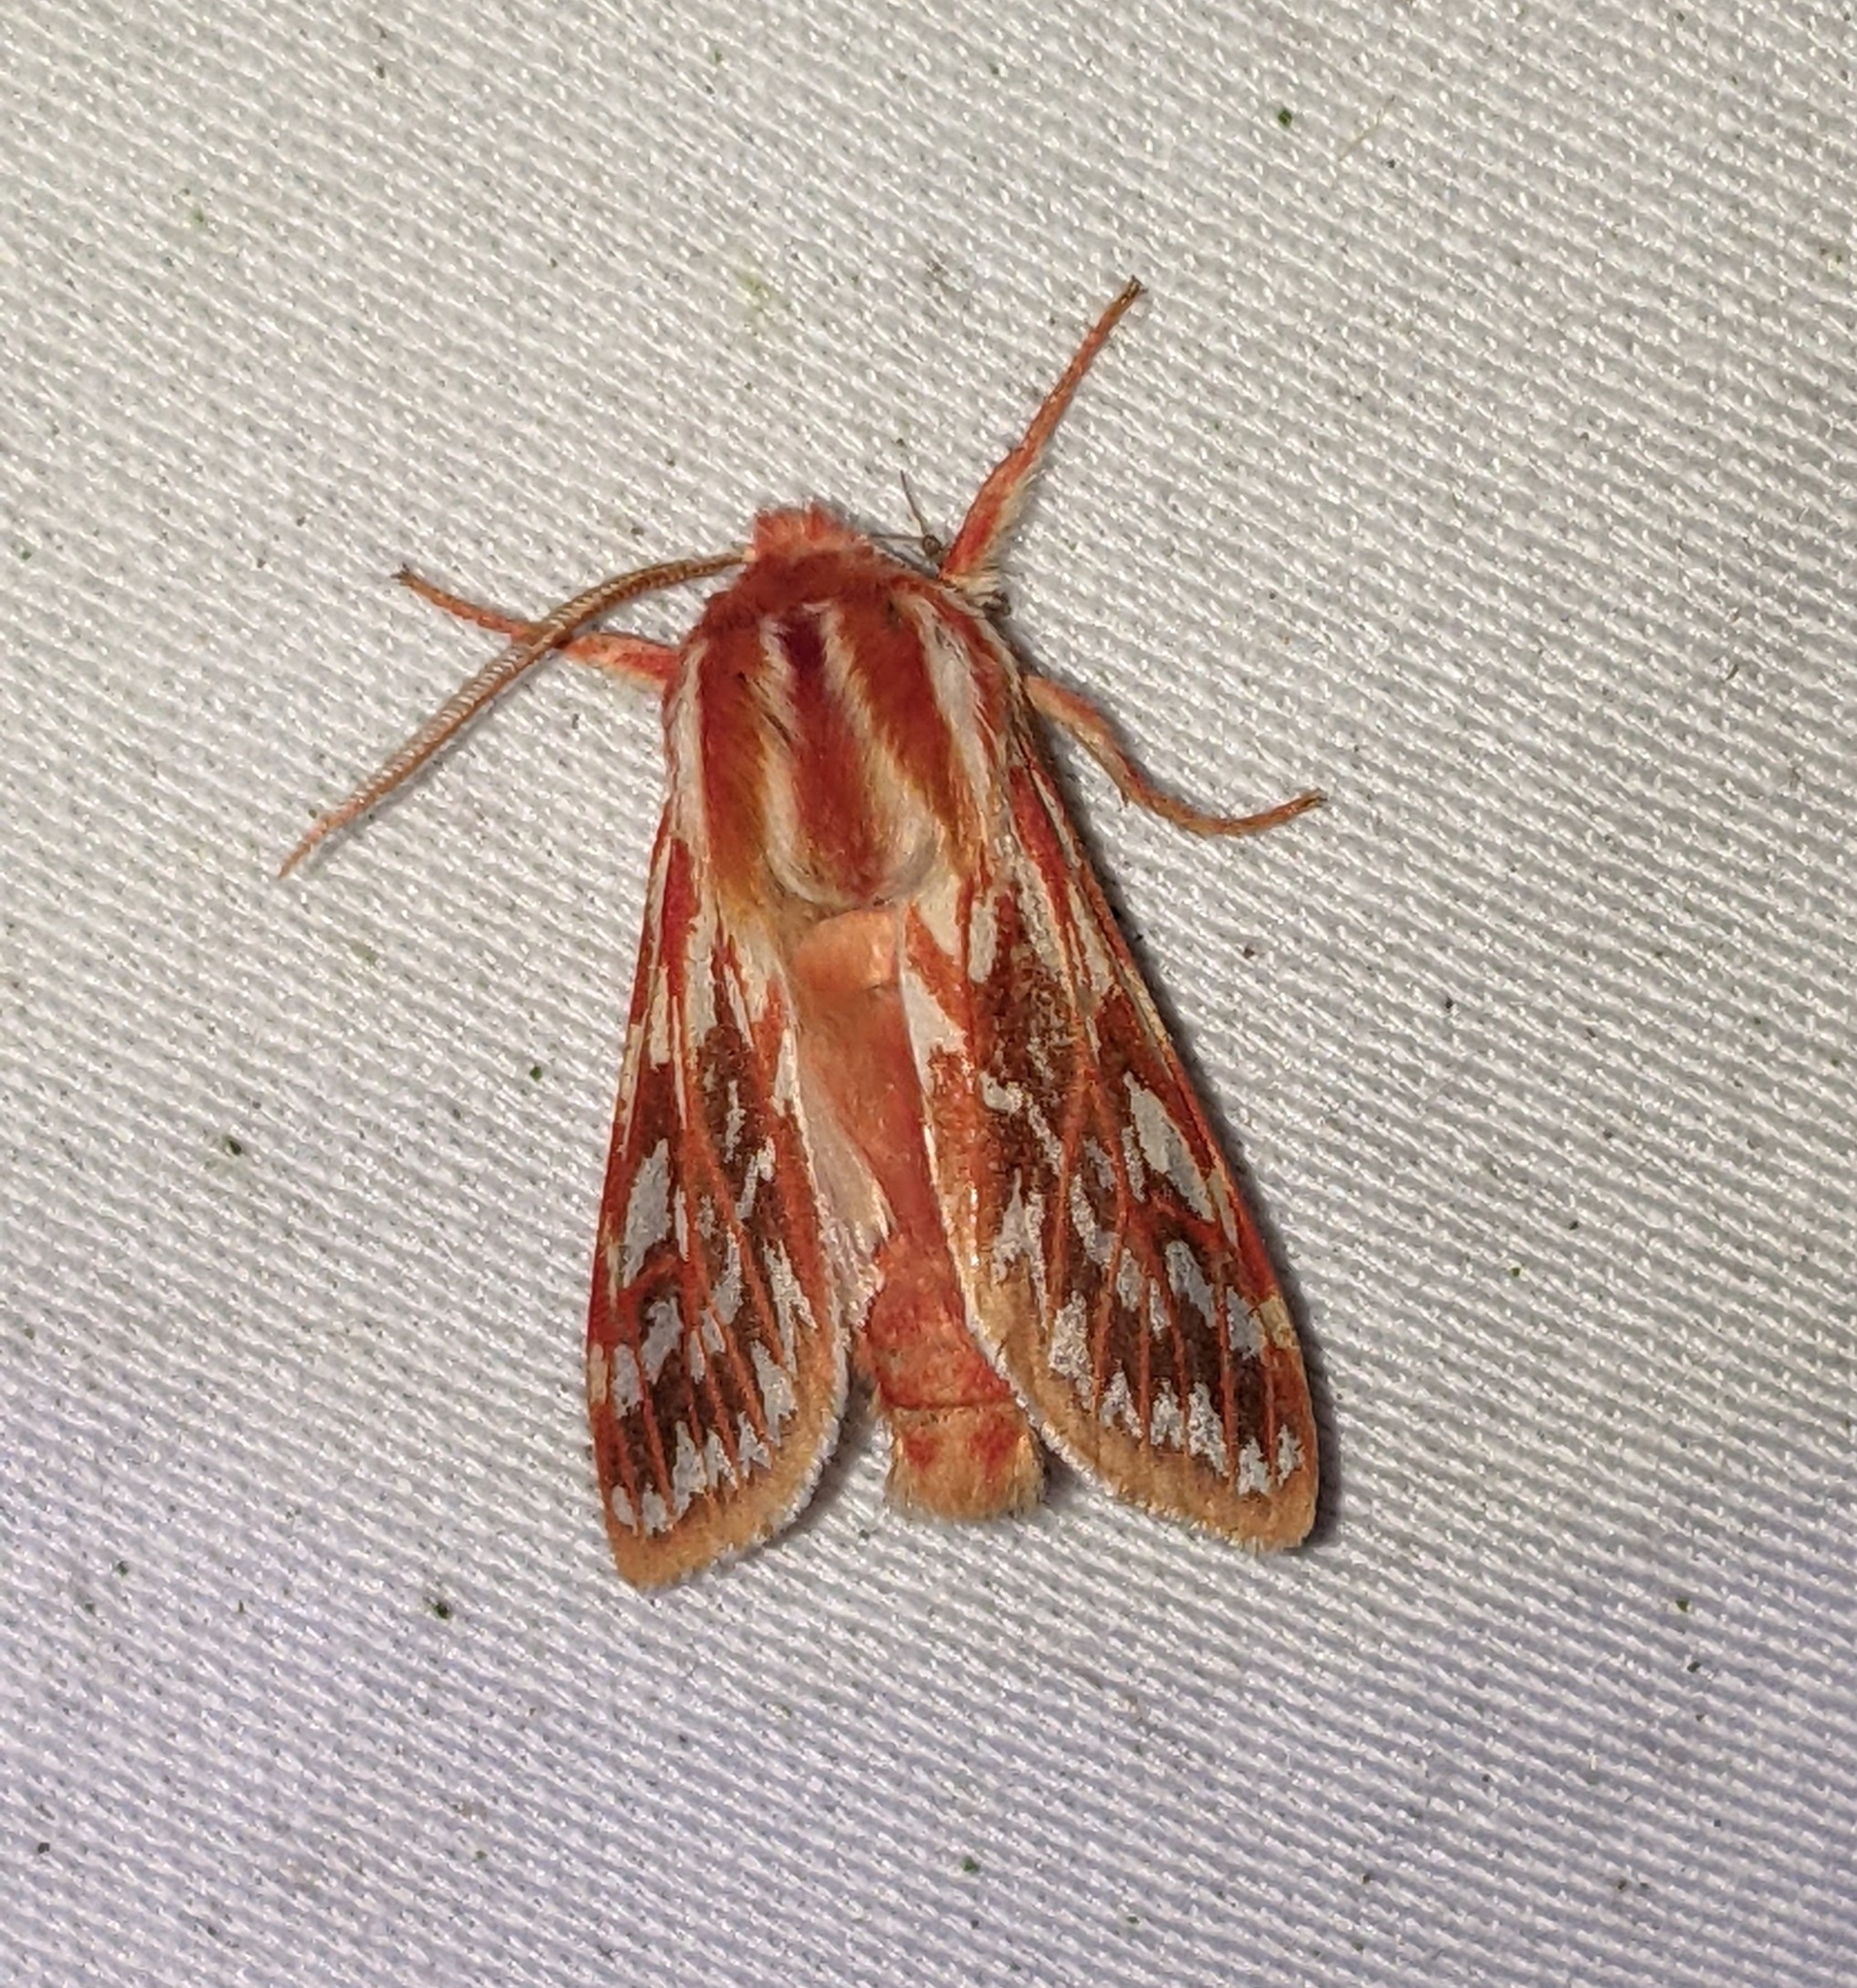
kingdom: Animalia
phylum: Arthropoda
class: Insecta
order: Lepidoptera
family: Erebidae
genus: Lophocampa
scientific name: Lophocampa roseata
